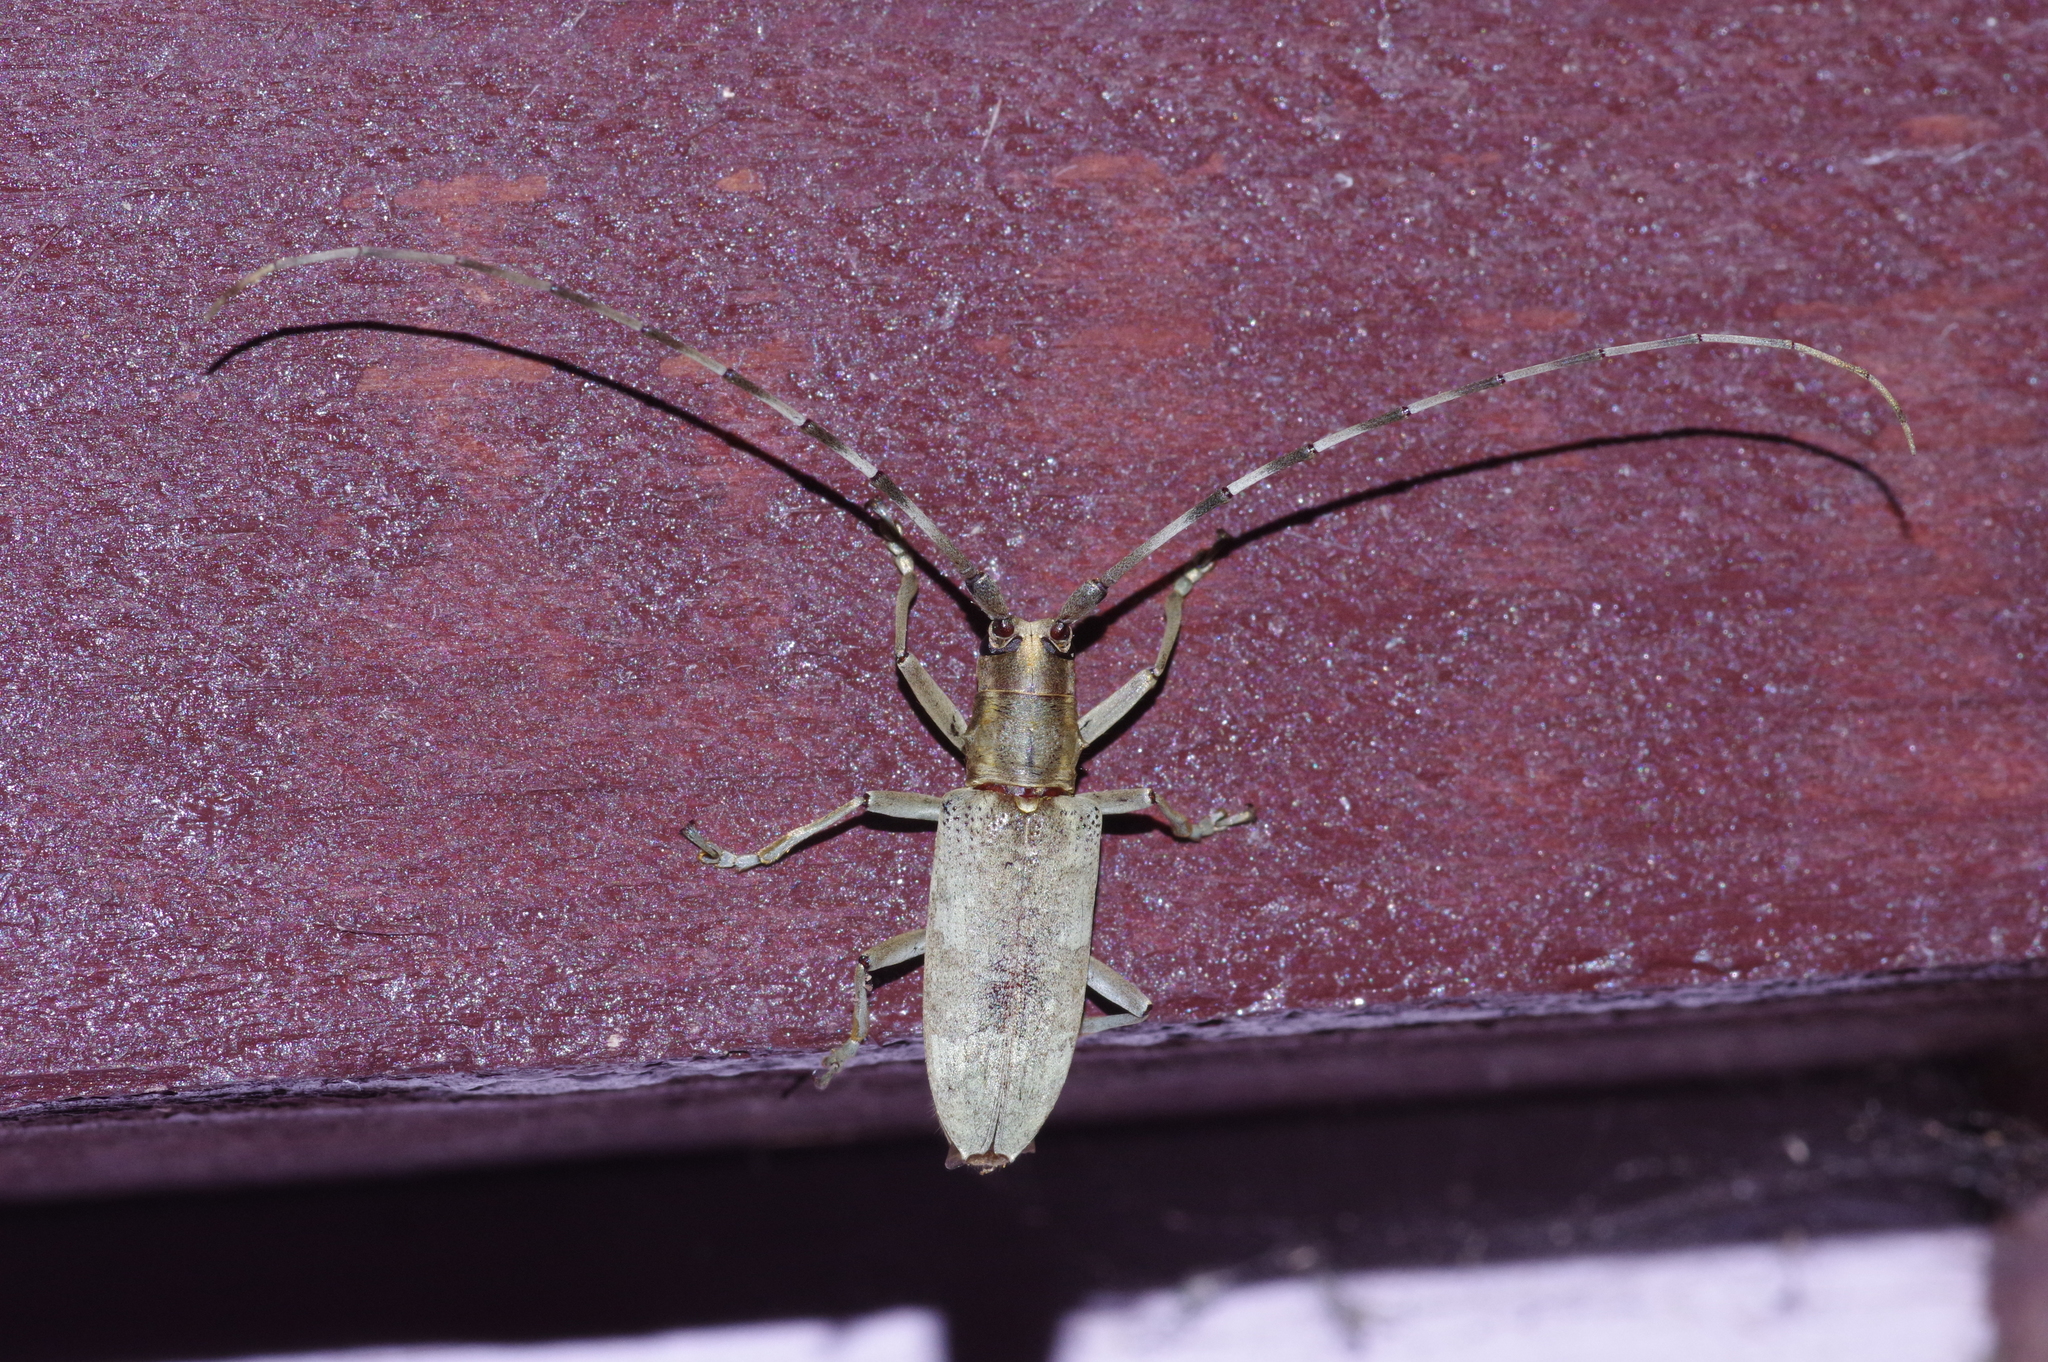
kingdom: Animalia
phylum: Arthropoda
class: Insecta
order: Coleoptera
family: Cerambycidae
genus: Psacothea
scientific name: Psacothea hilaris
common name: Yellow-spotted longicorn beetle
